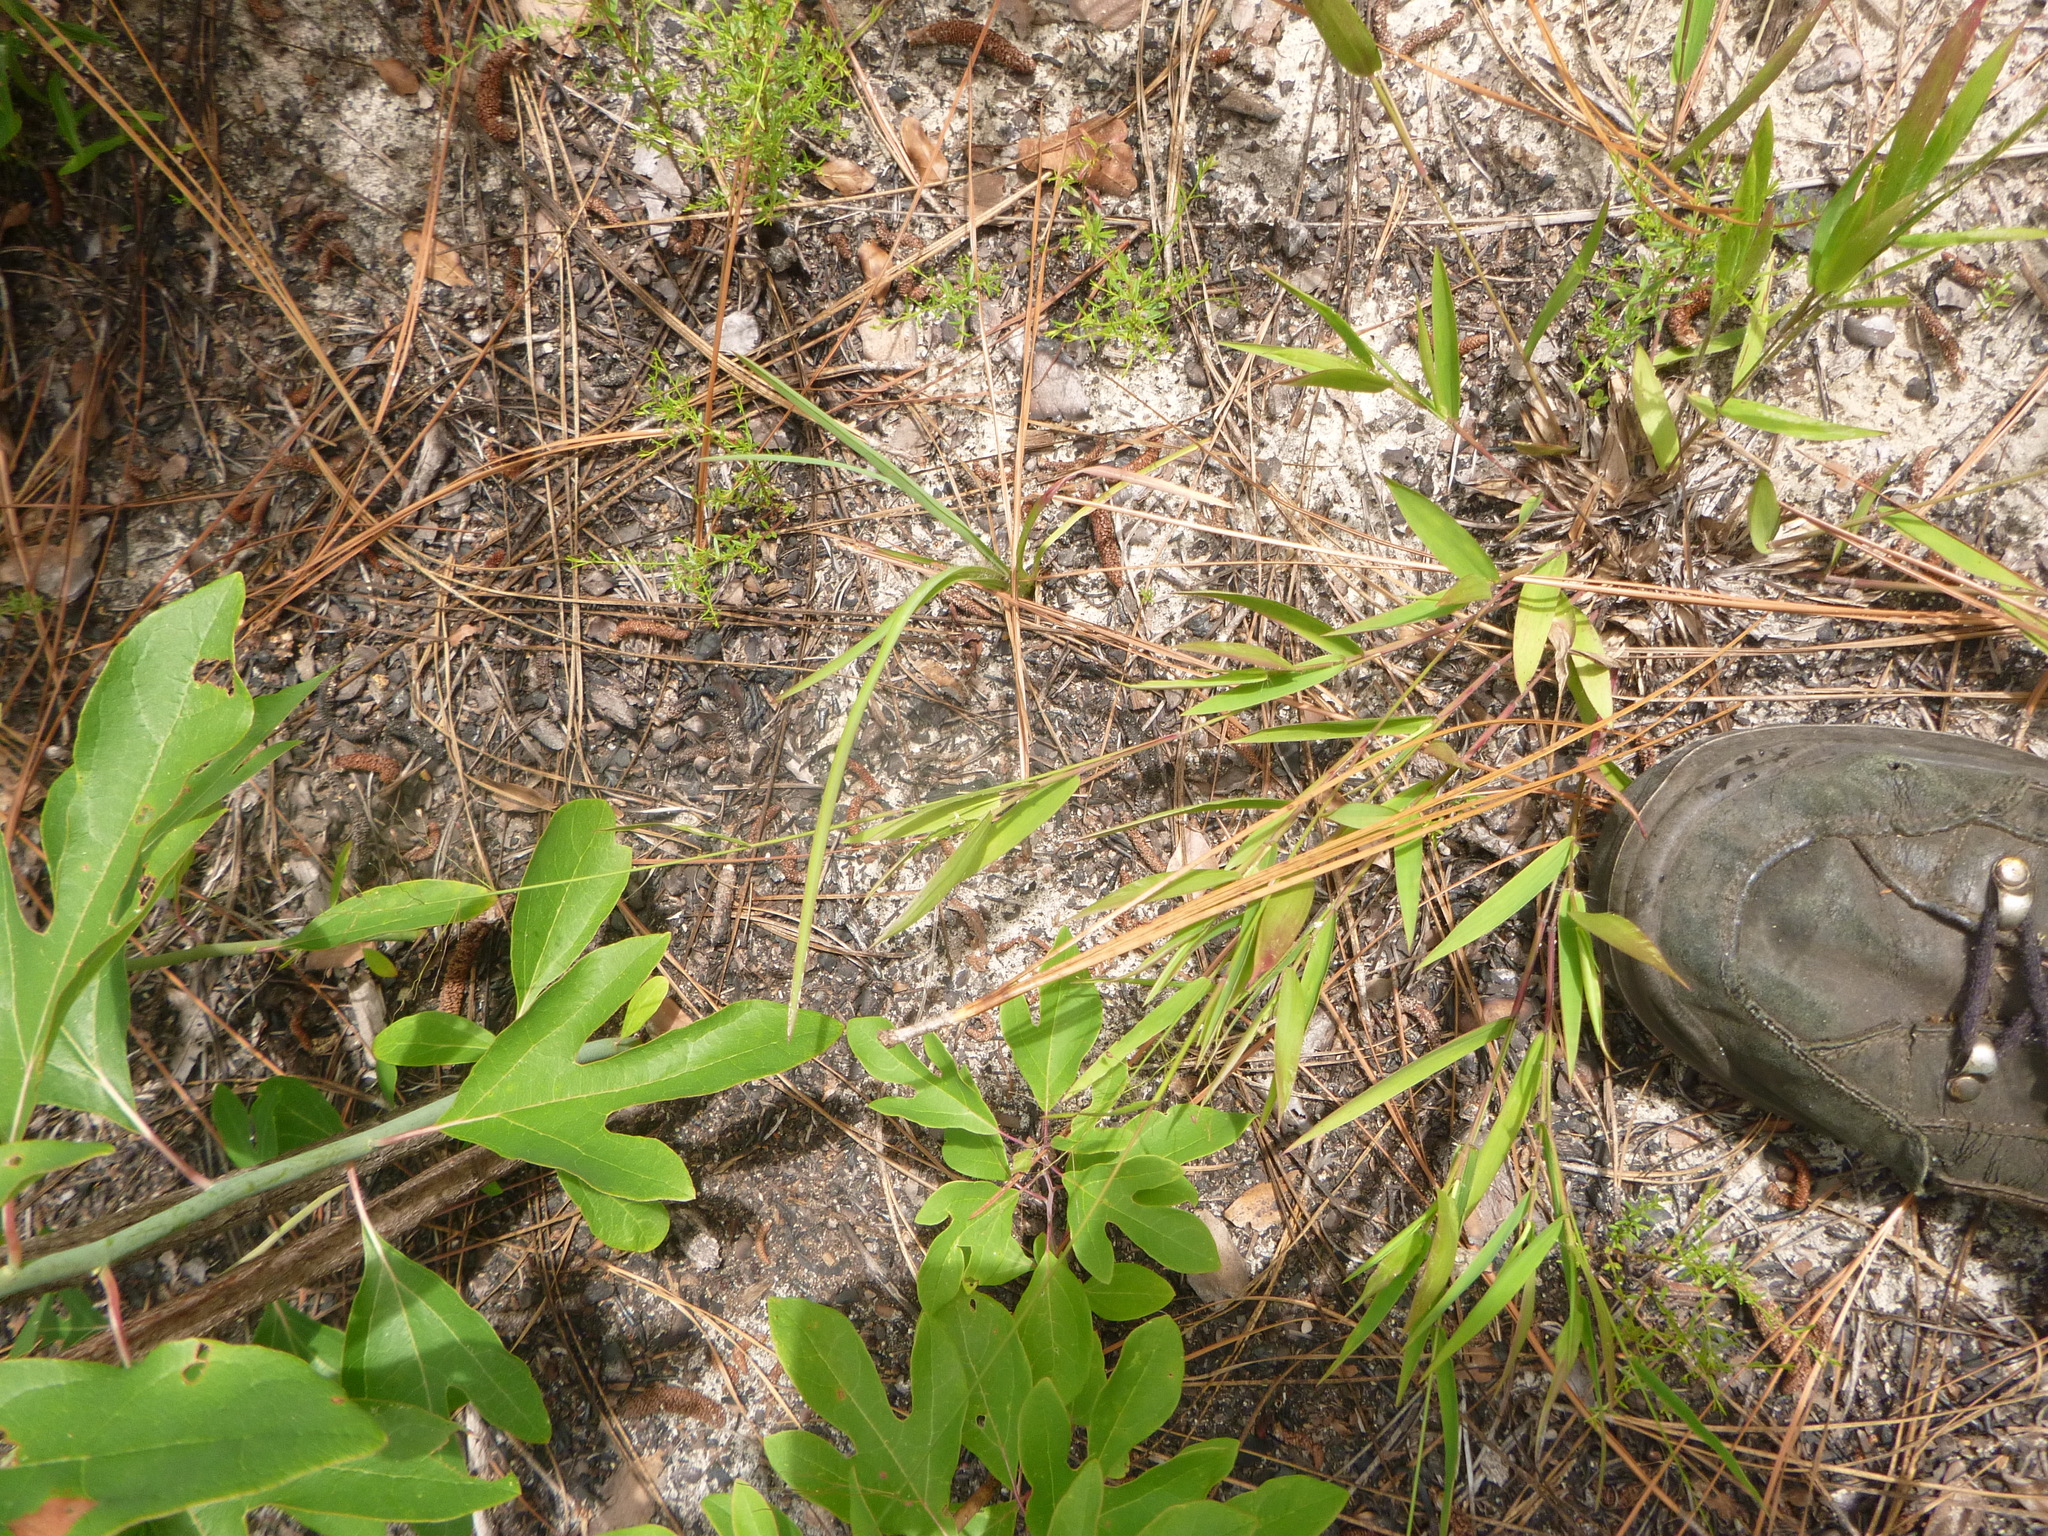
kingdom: Plantae
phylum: Tracheophyta
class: Liliopsida
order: Poales
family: Poaceae
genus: Dichanthelium
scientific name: Dichanthelium commutatum
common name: Variable witchgrass
